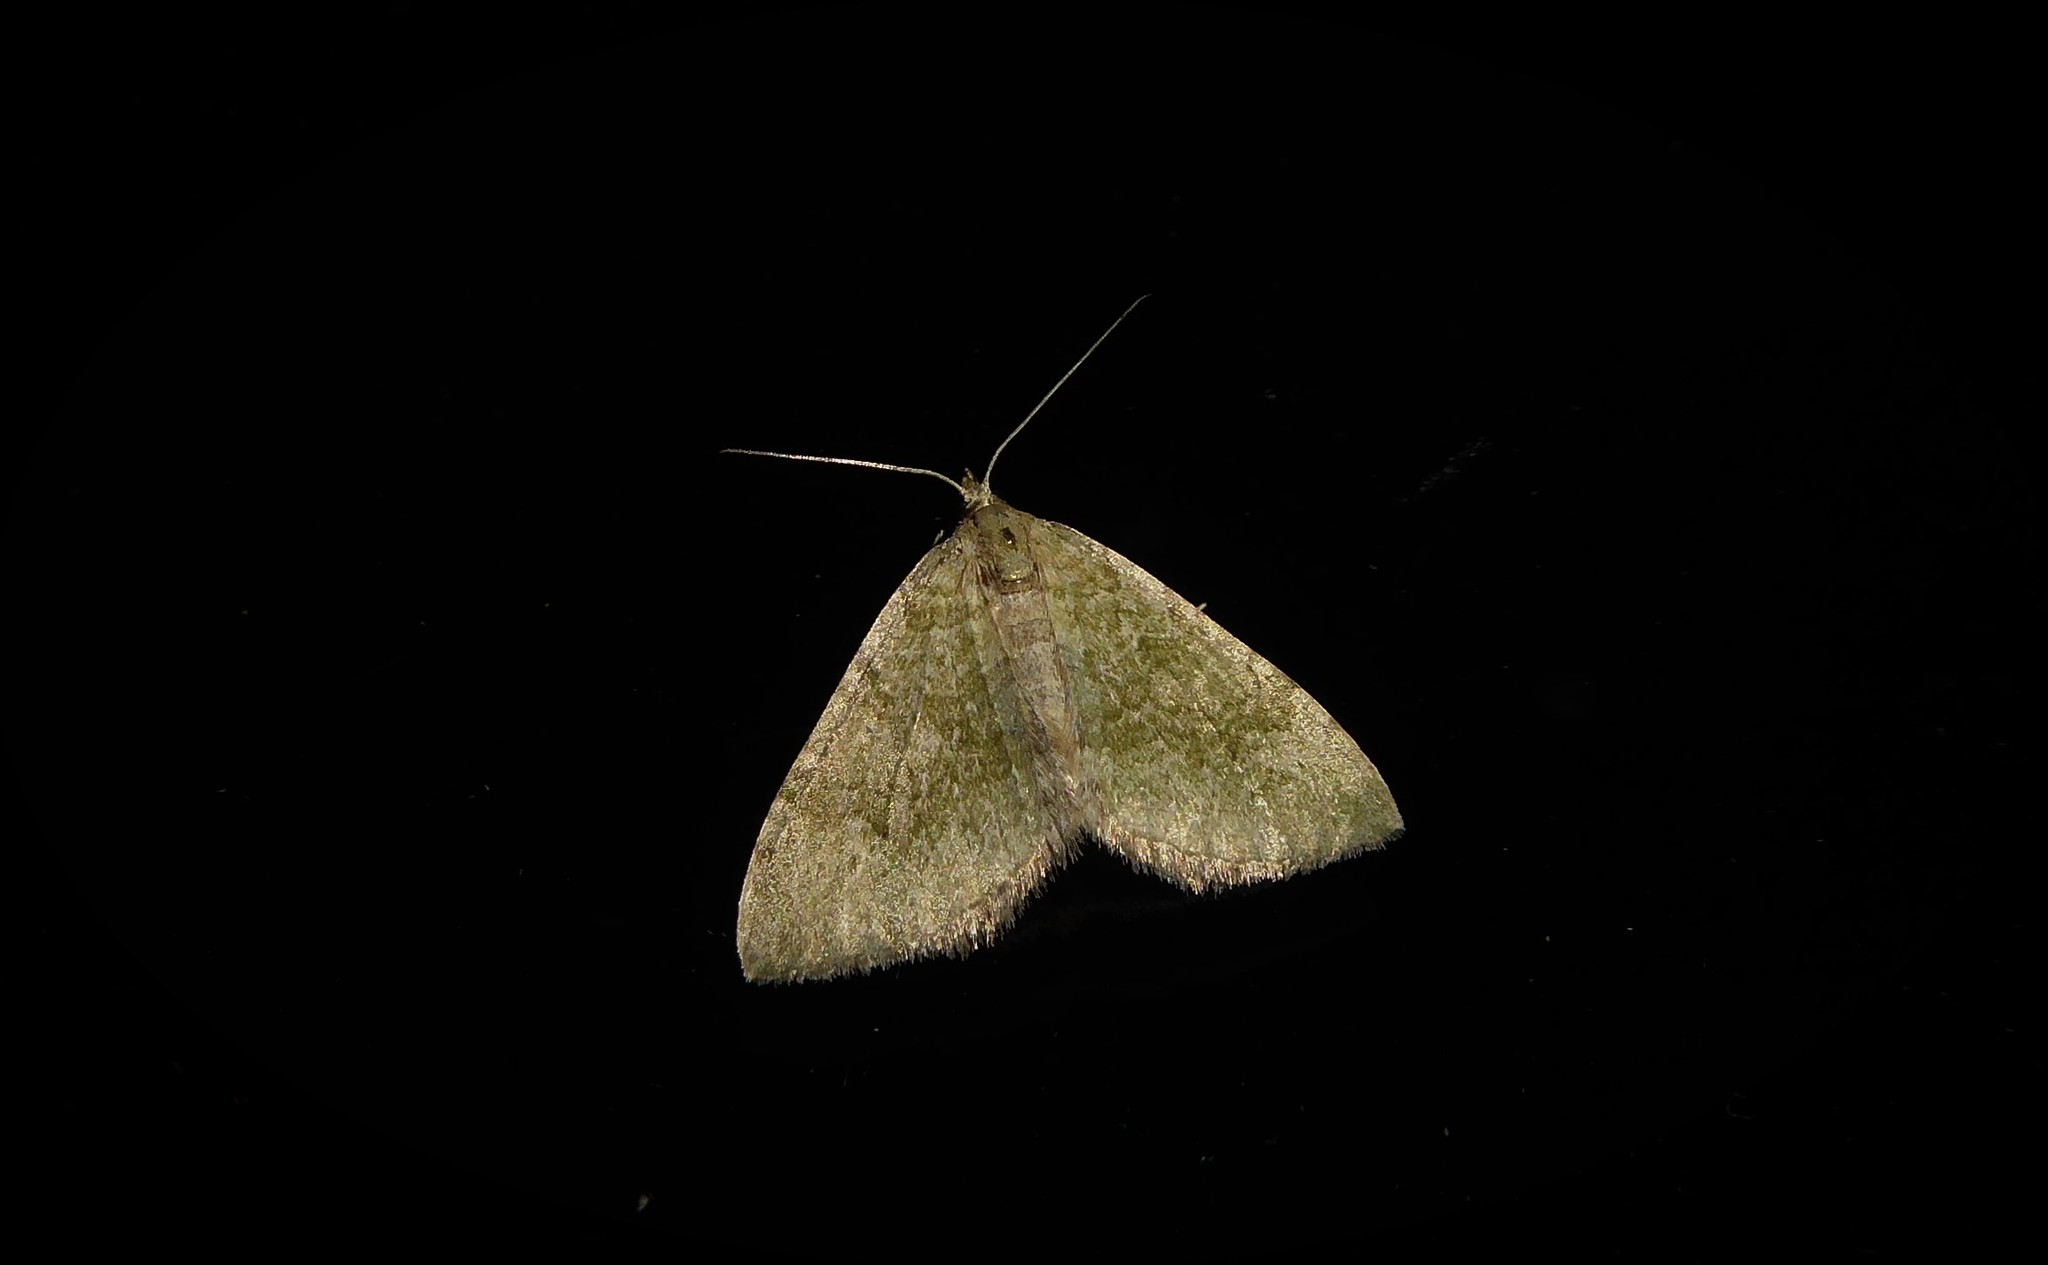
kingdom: Animalia
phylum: Arthropoda
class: Insecta
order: Lepidoptera
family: Geometridae
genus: Epyaxa
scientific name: Epyaxa rosearia
